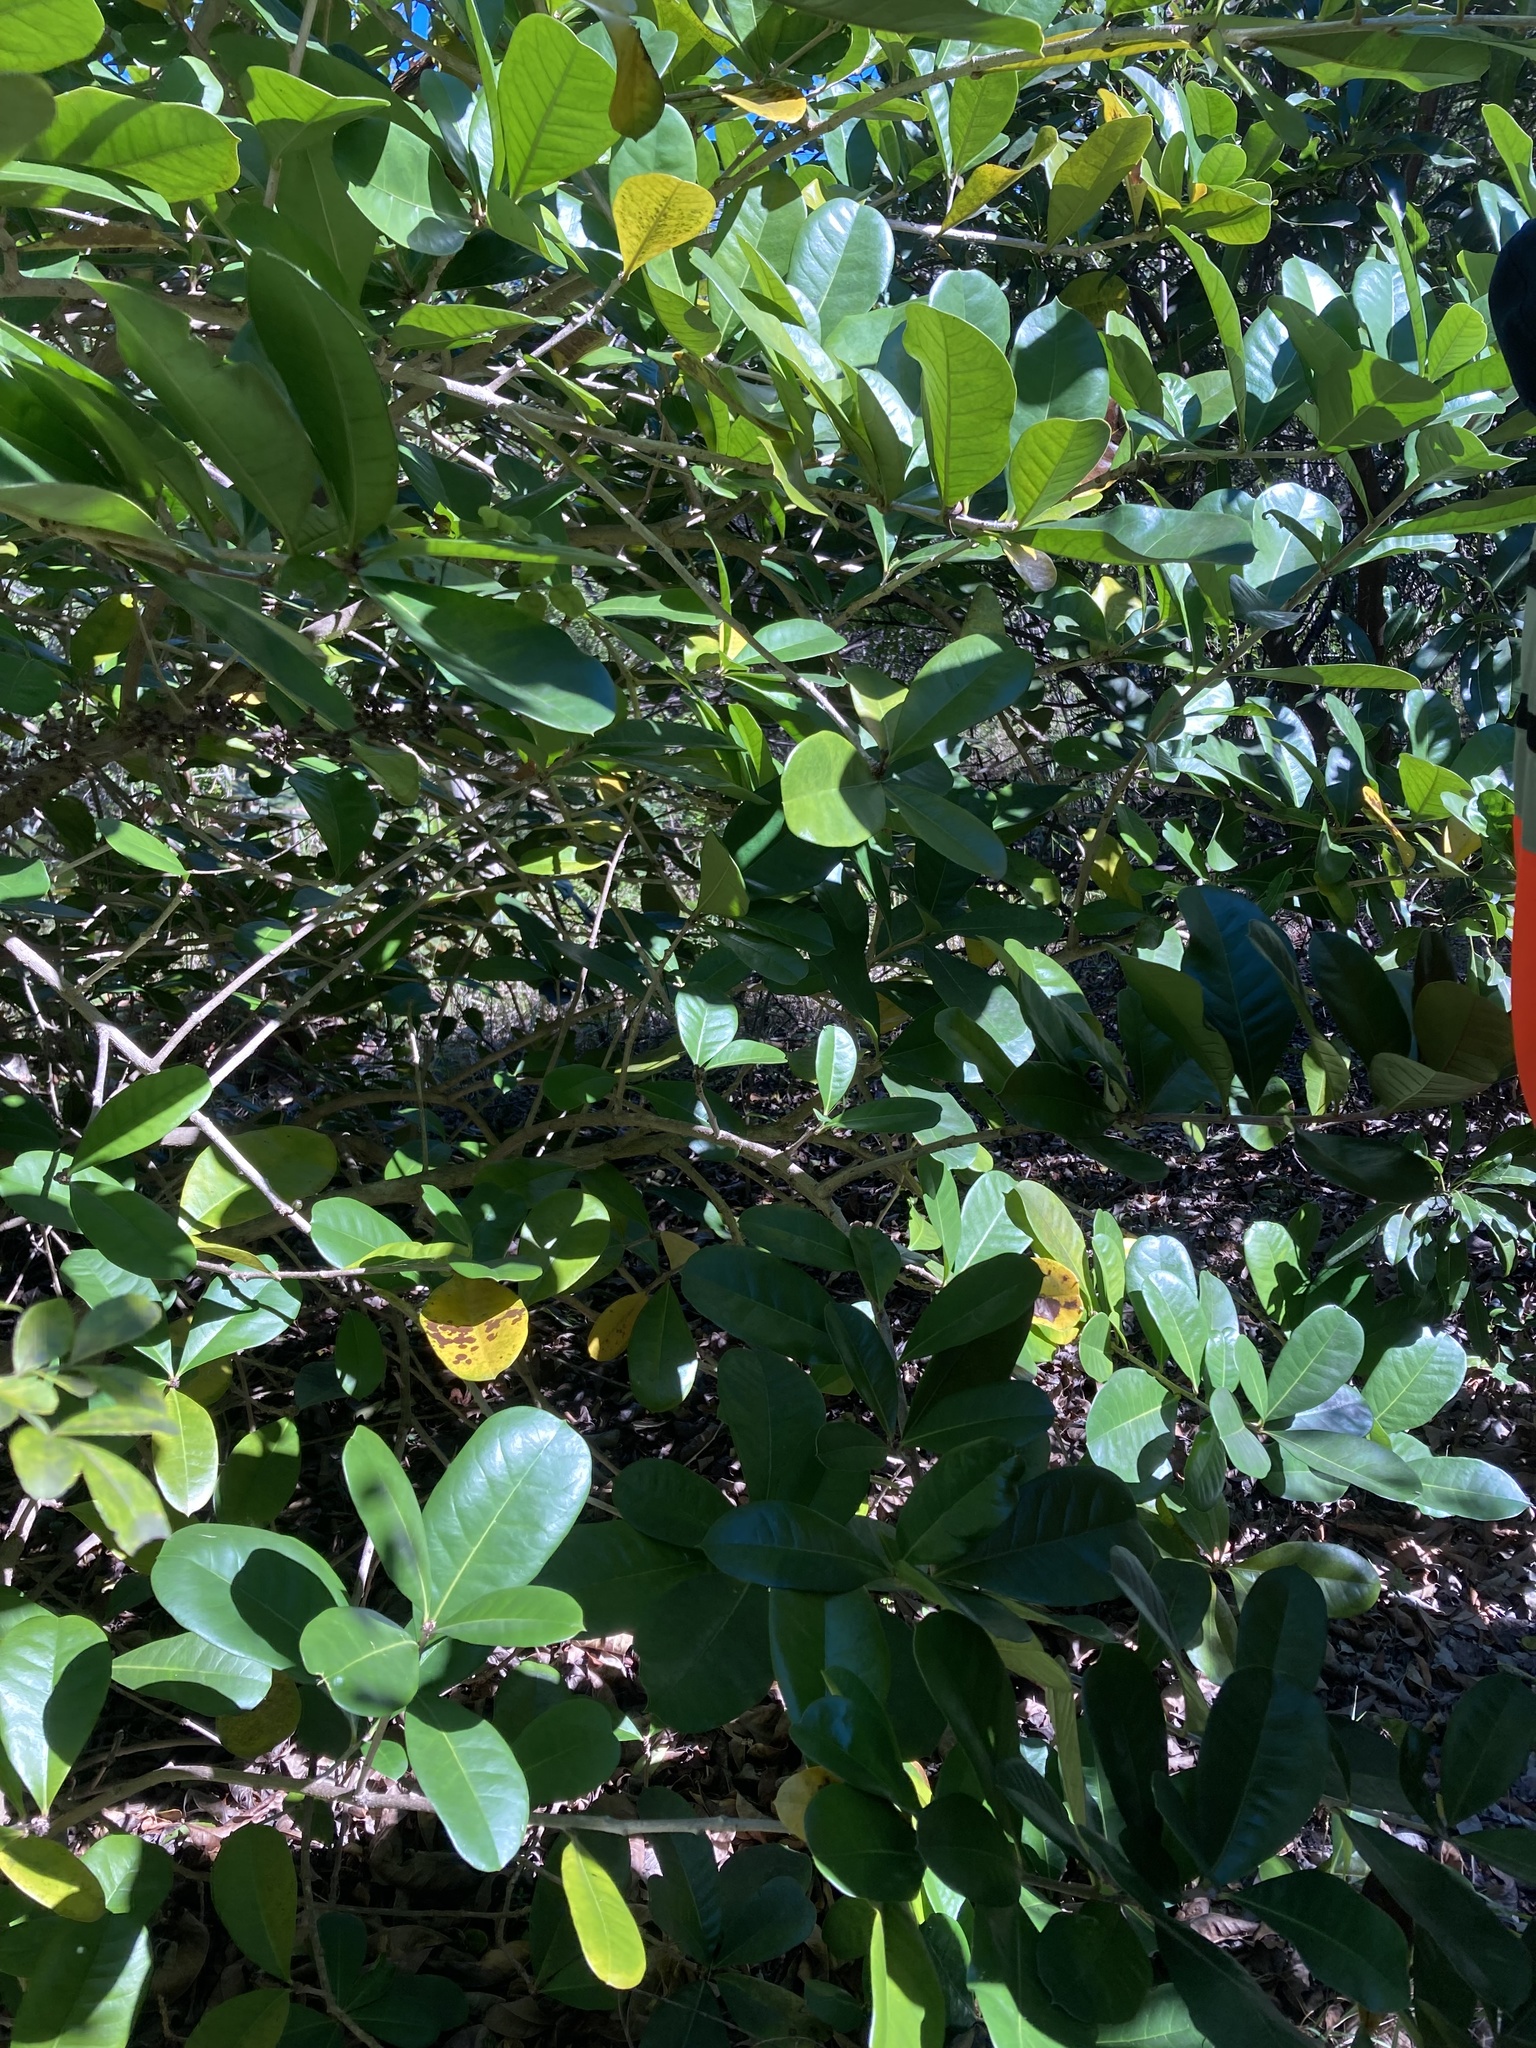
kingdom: Plantae
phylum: Tracheophyta
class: Magnoliopsida
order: Lamiales
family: Bignoniaceae
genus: Amphitecna
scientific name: Amphitecna latifolia
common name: Black-calabash
